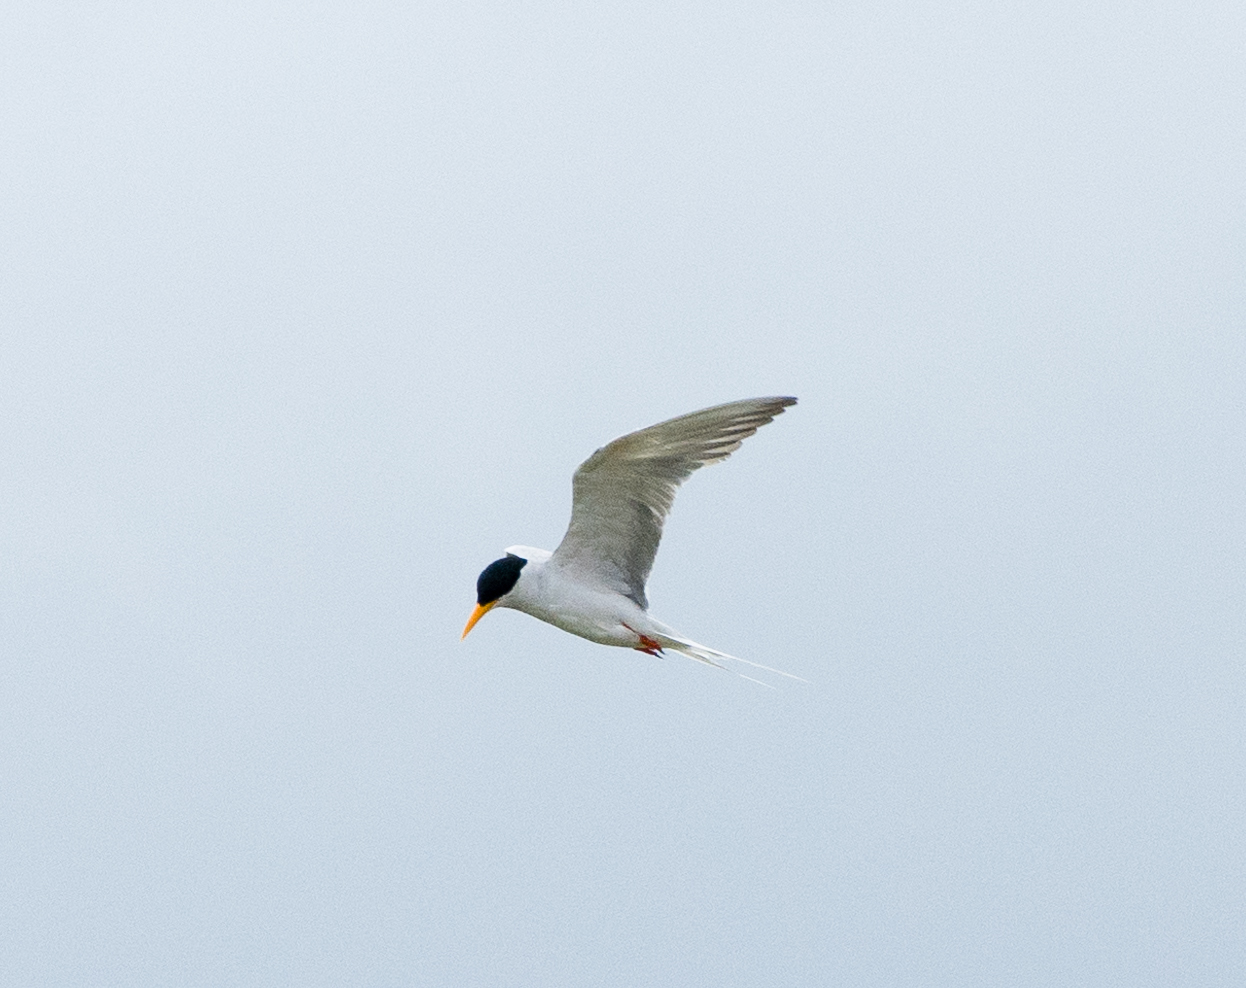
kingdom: Animalia
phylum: Chordata
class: Aves
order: Charadriiformes
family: Laridae
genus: Sterna
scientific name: Sterna aurantia
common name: River tern
